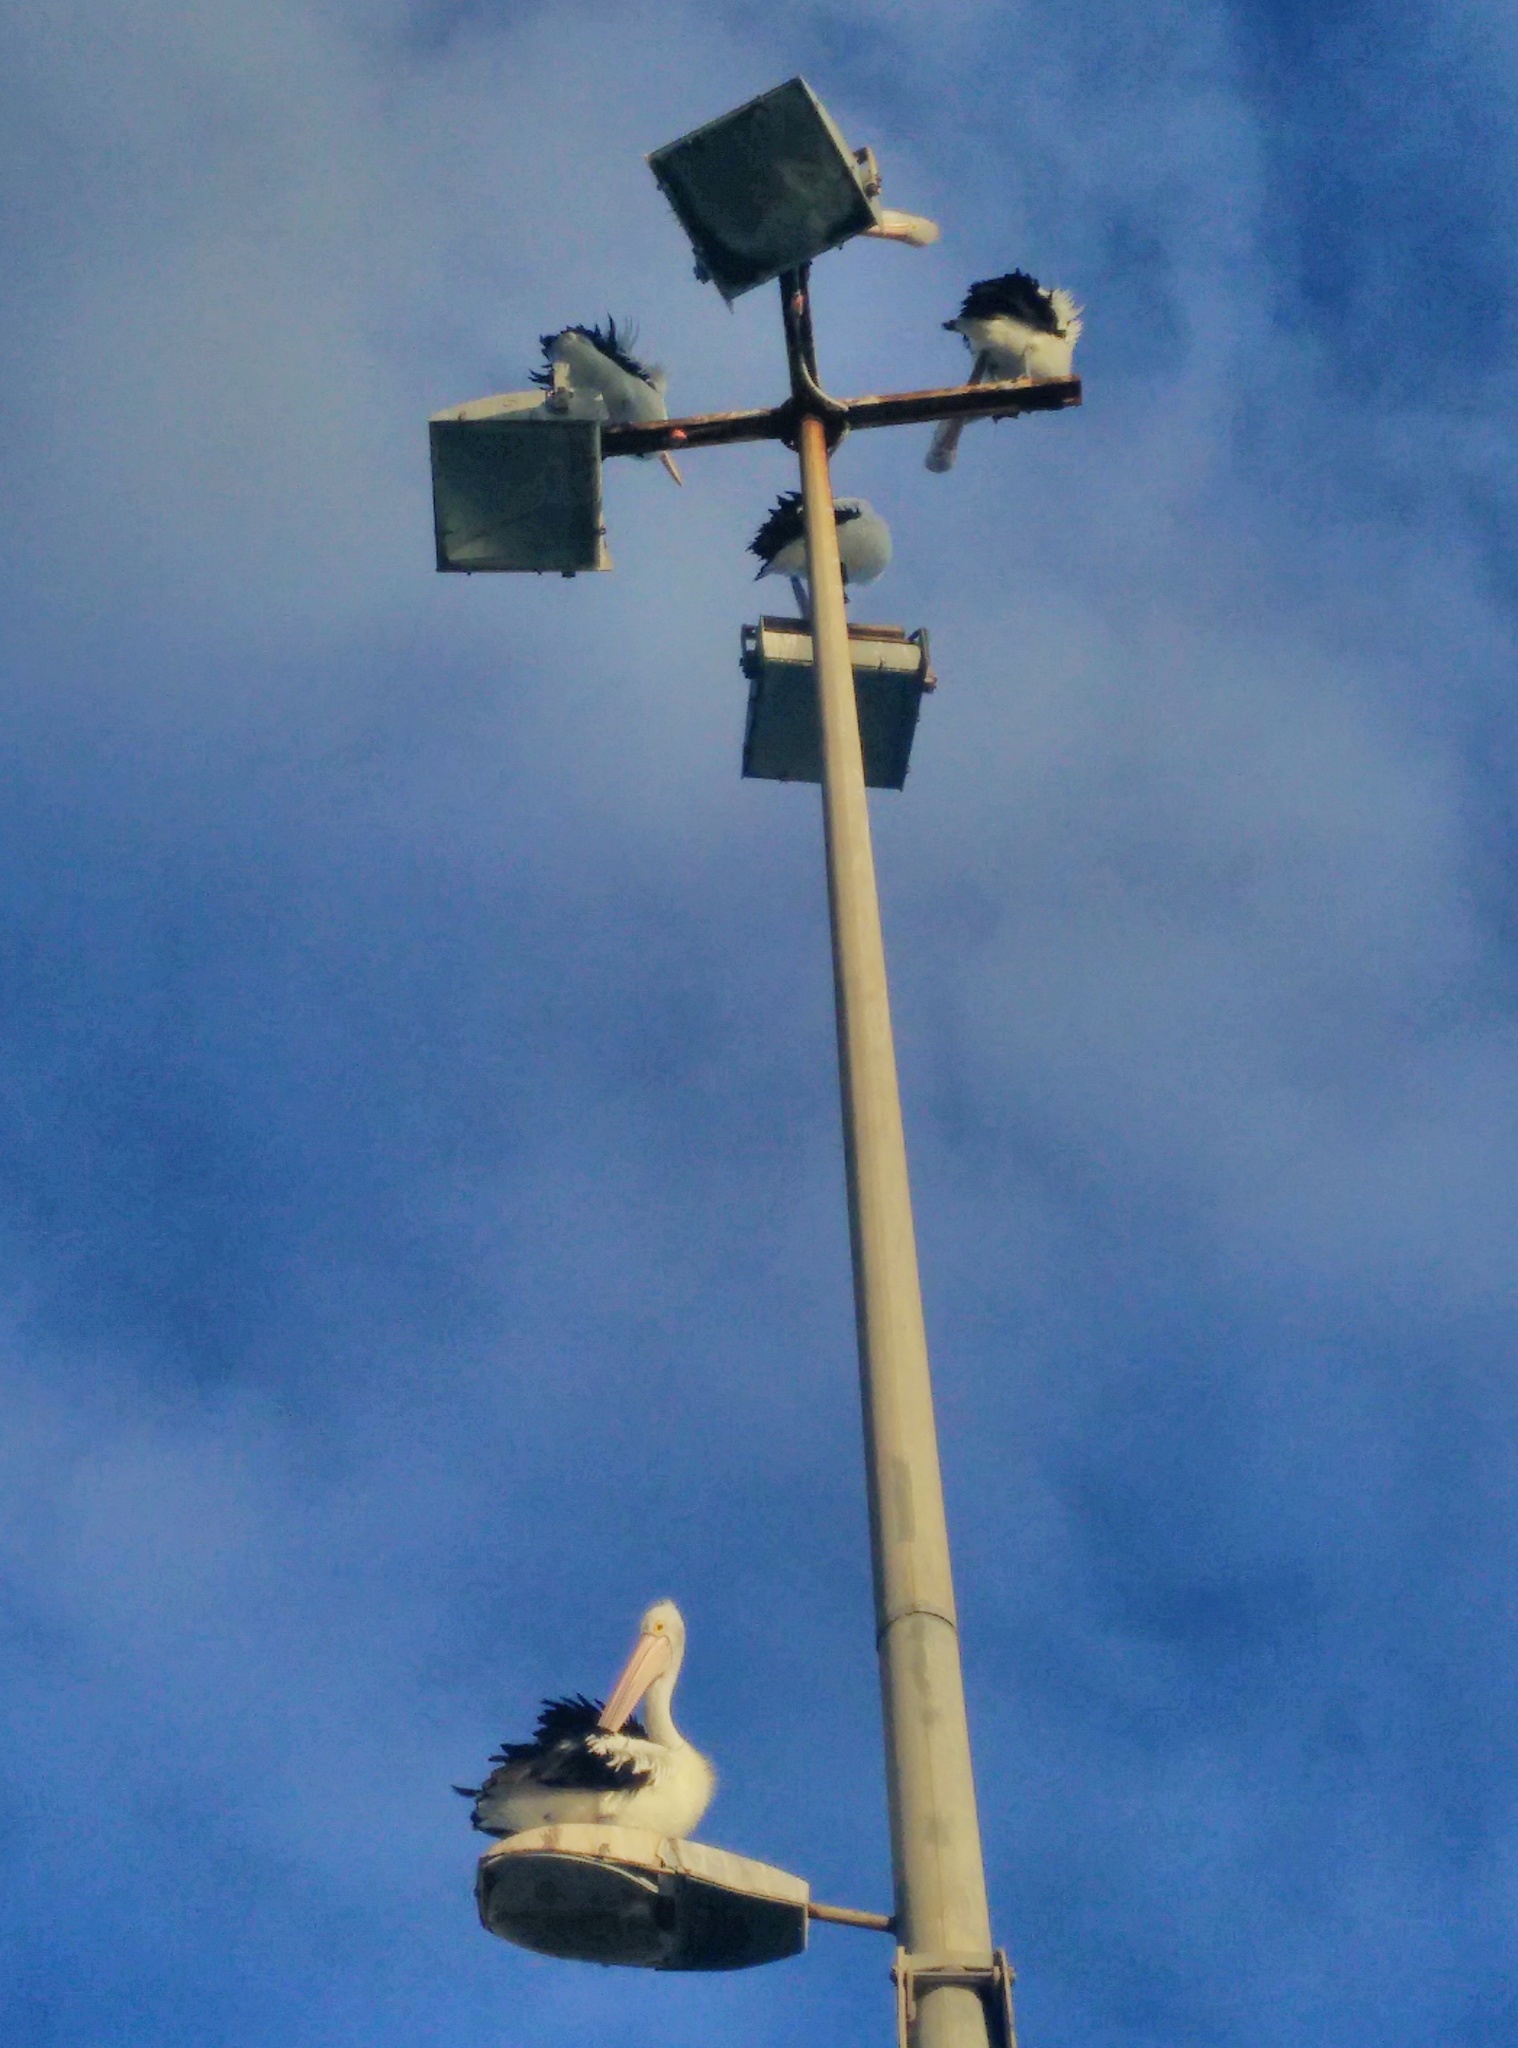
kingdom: Animalia
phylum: Chordata
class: Aves
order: Pelecaniformes
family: Pelecanidae
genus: Pelecanus
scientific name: Pelecanus conspicillatus
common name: Australian pelican
